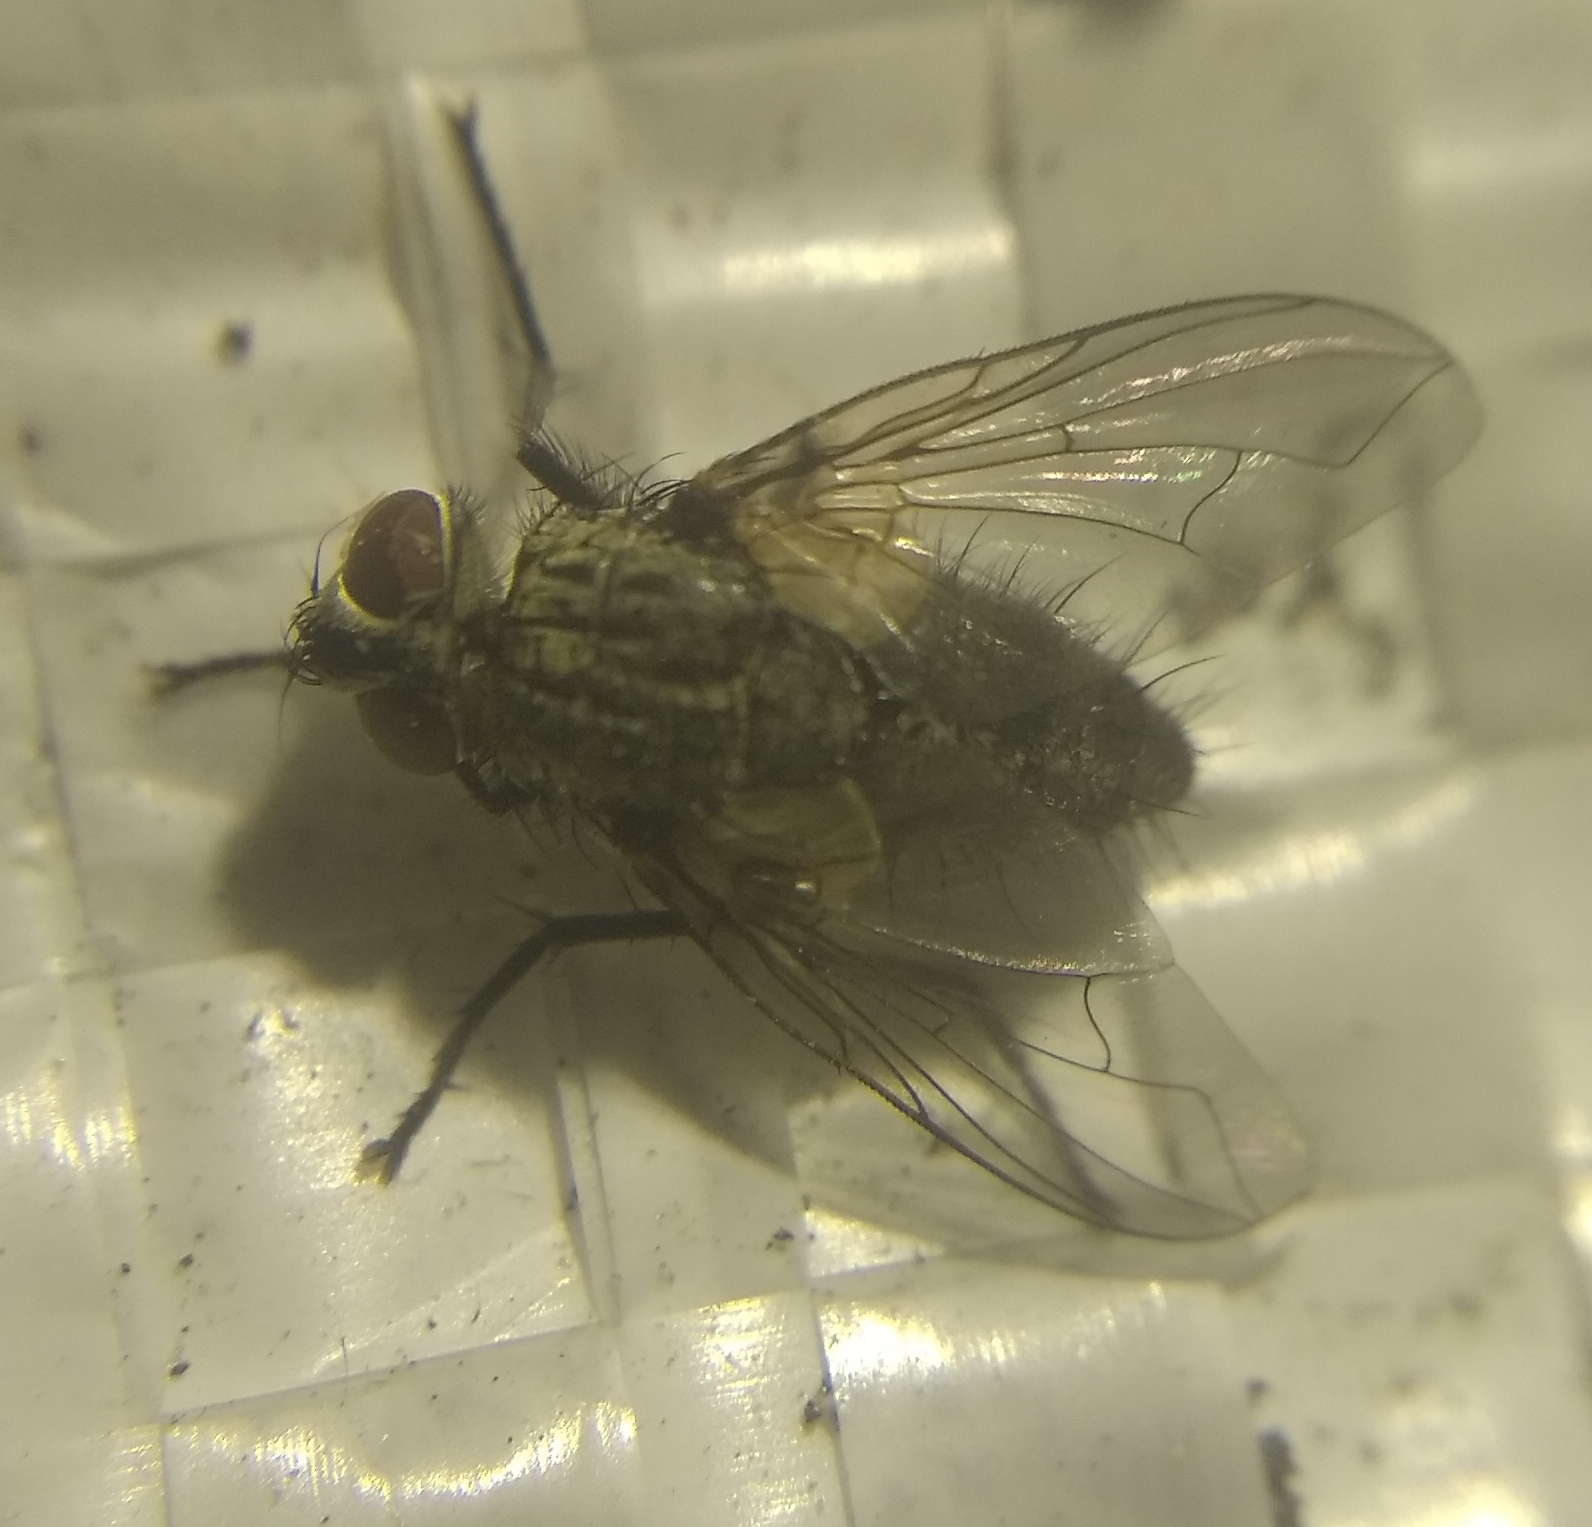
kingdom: Animalia
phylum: Arthropoda
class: Insecta
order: Diptera
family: Tachinidae
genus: Zaira
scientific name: Zaira cinerea
